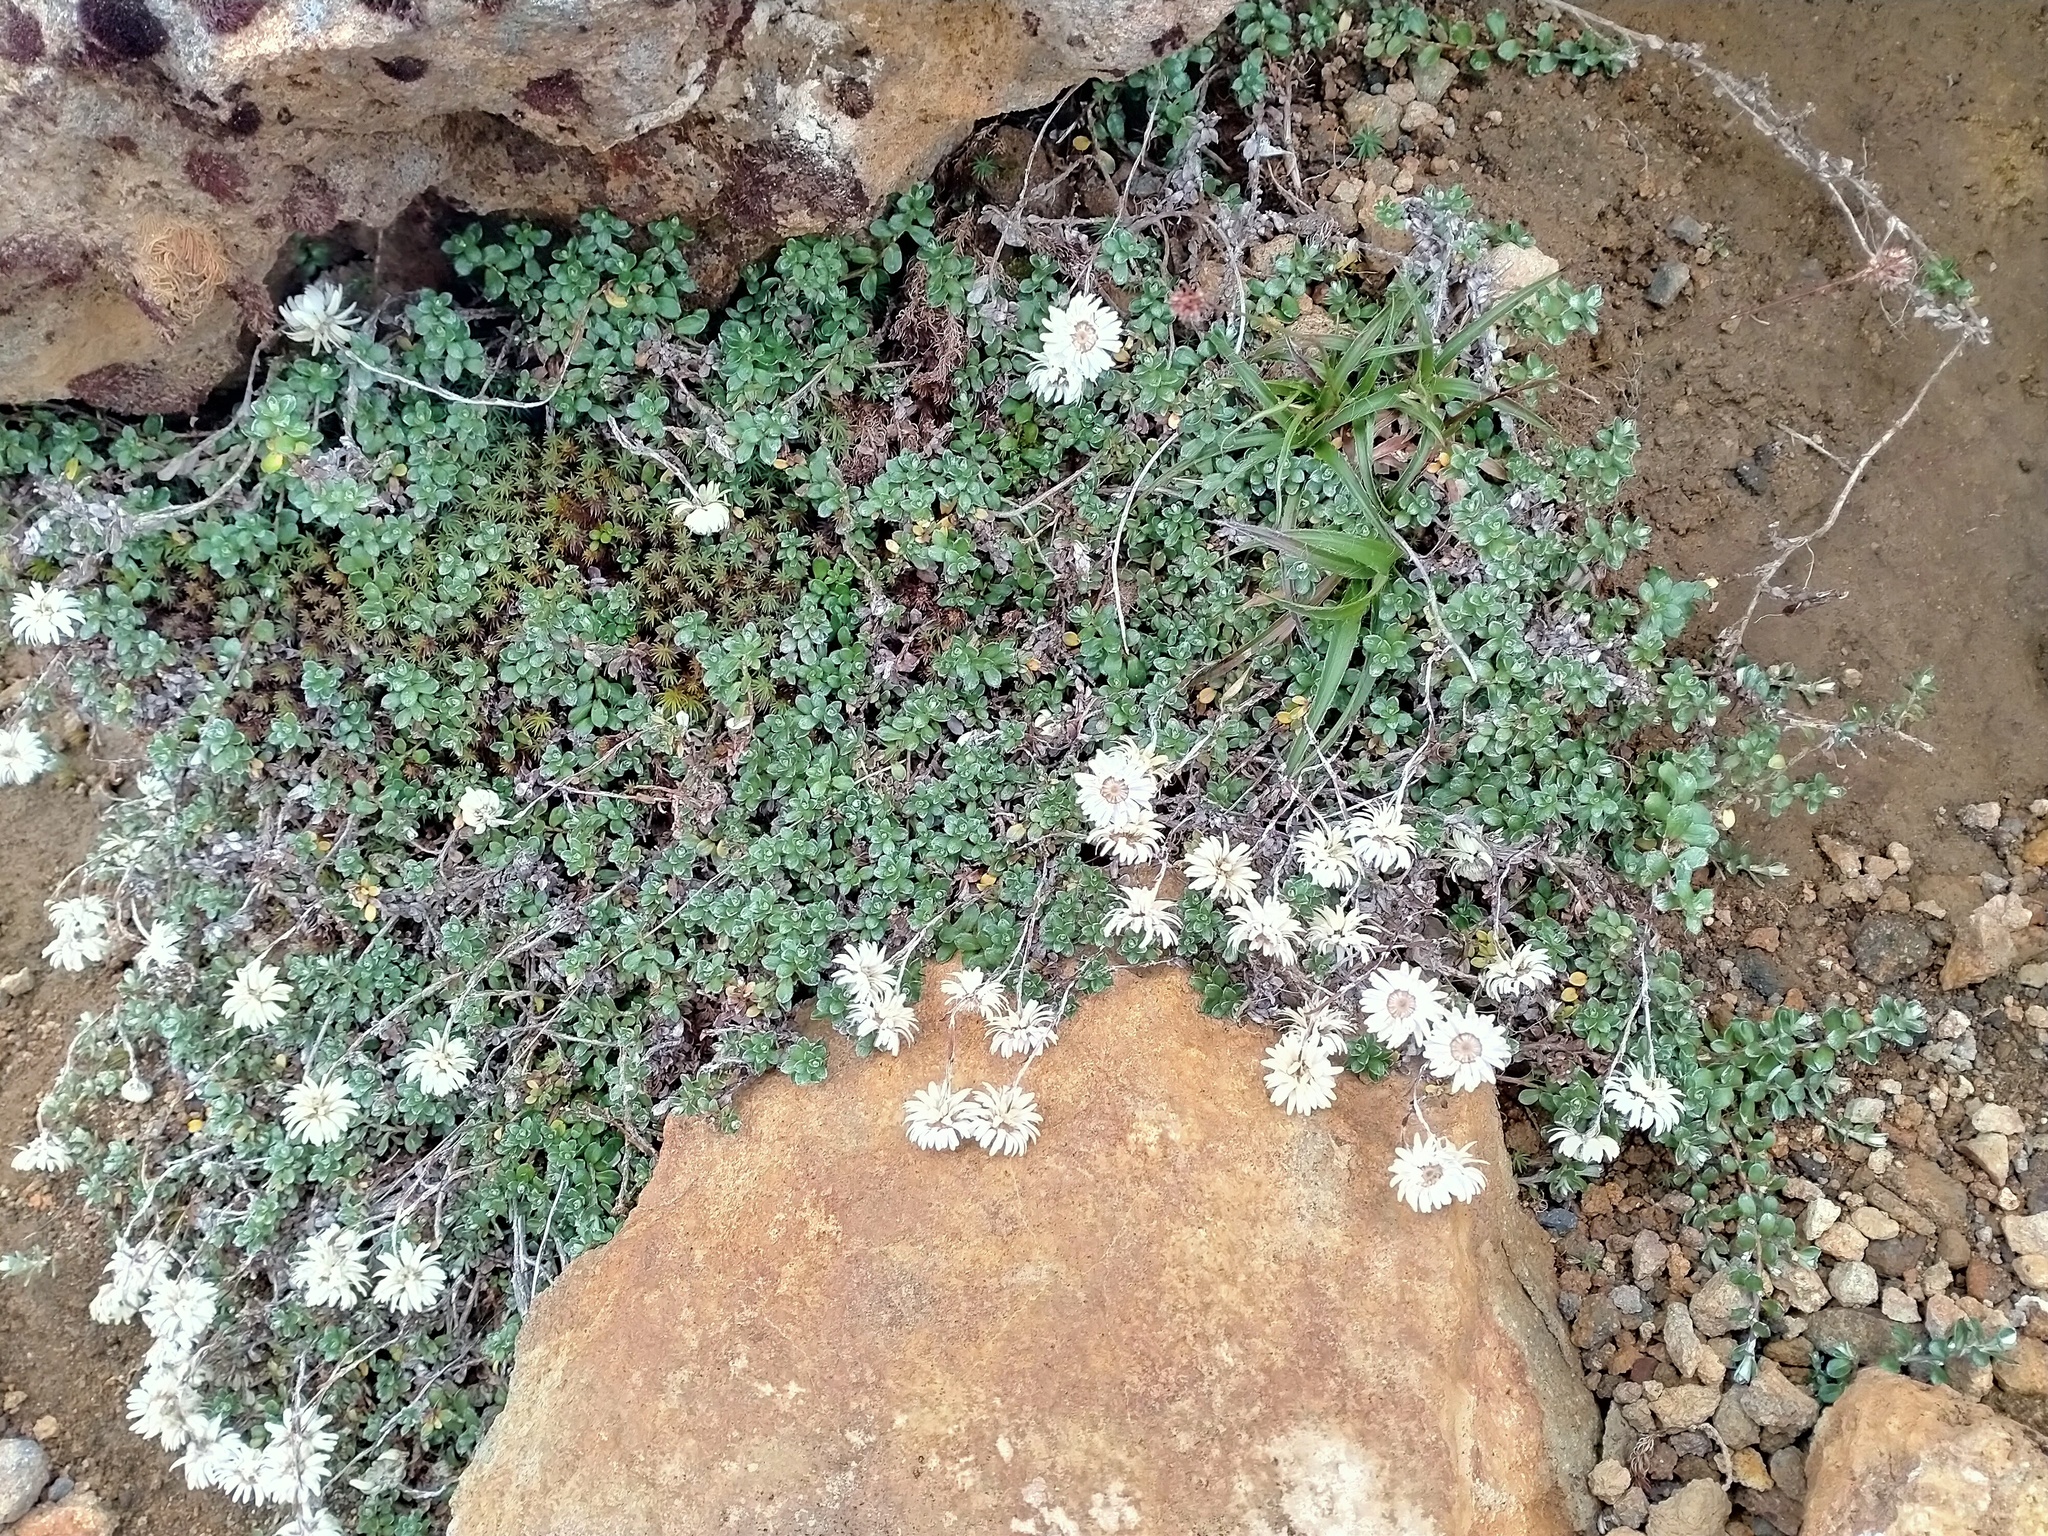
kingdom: Plantae
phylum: Tracheophyta
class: Magnoliopsida
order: Asterales
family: Asteraceae
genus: Anaphalioides
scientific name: Anaphalioides alpina
